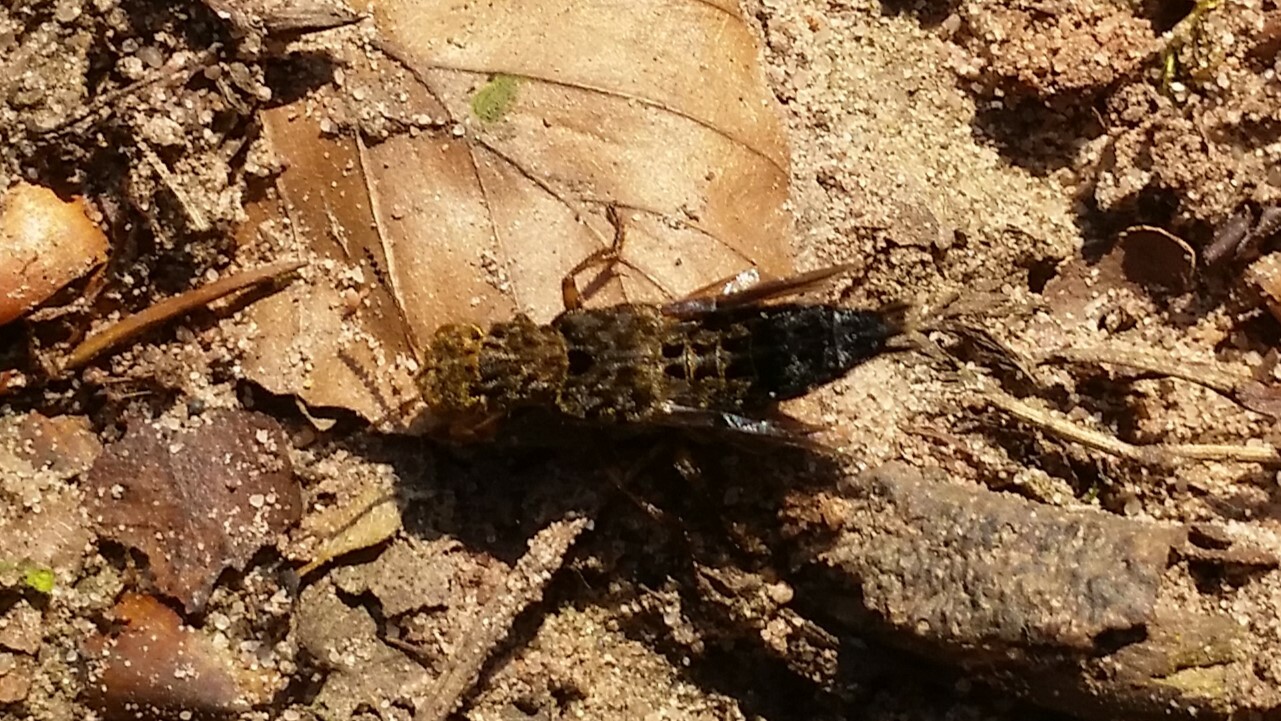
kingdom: Animalia
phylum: Arthropoda
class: Insecta
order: Coleoptera
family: Staphylinidae
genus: Ontholestes
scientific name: Ontholestes tessellatus
